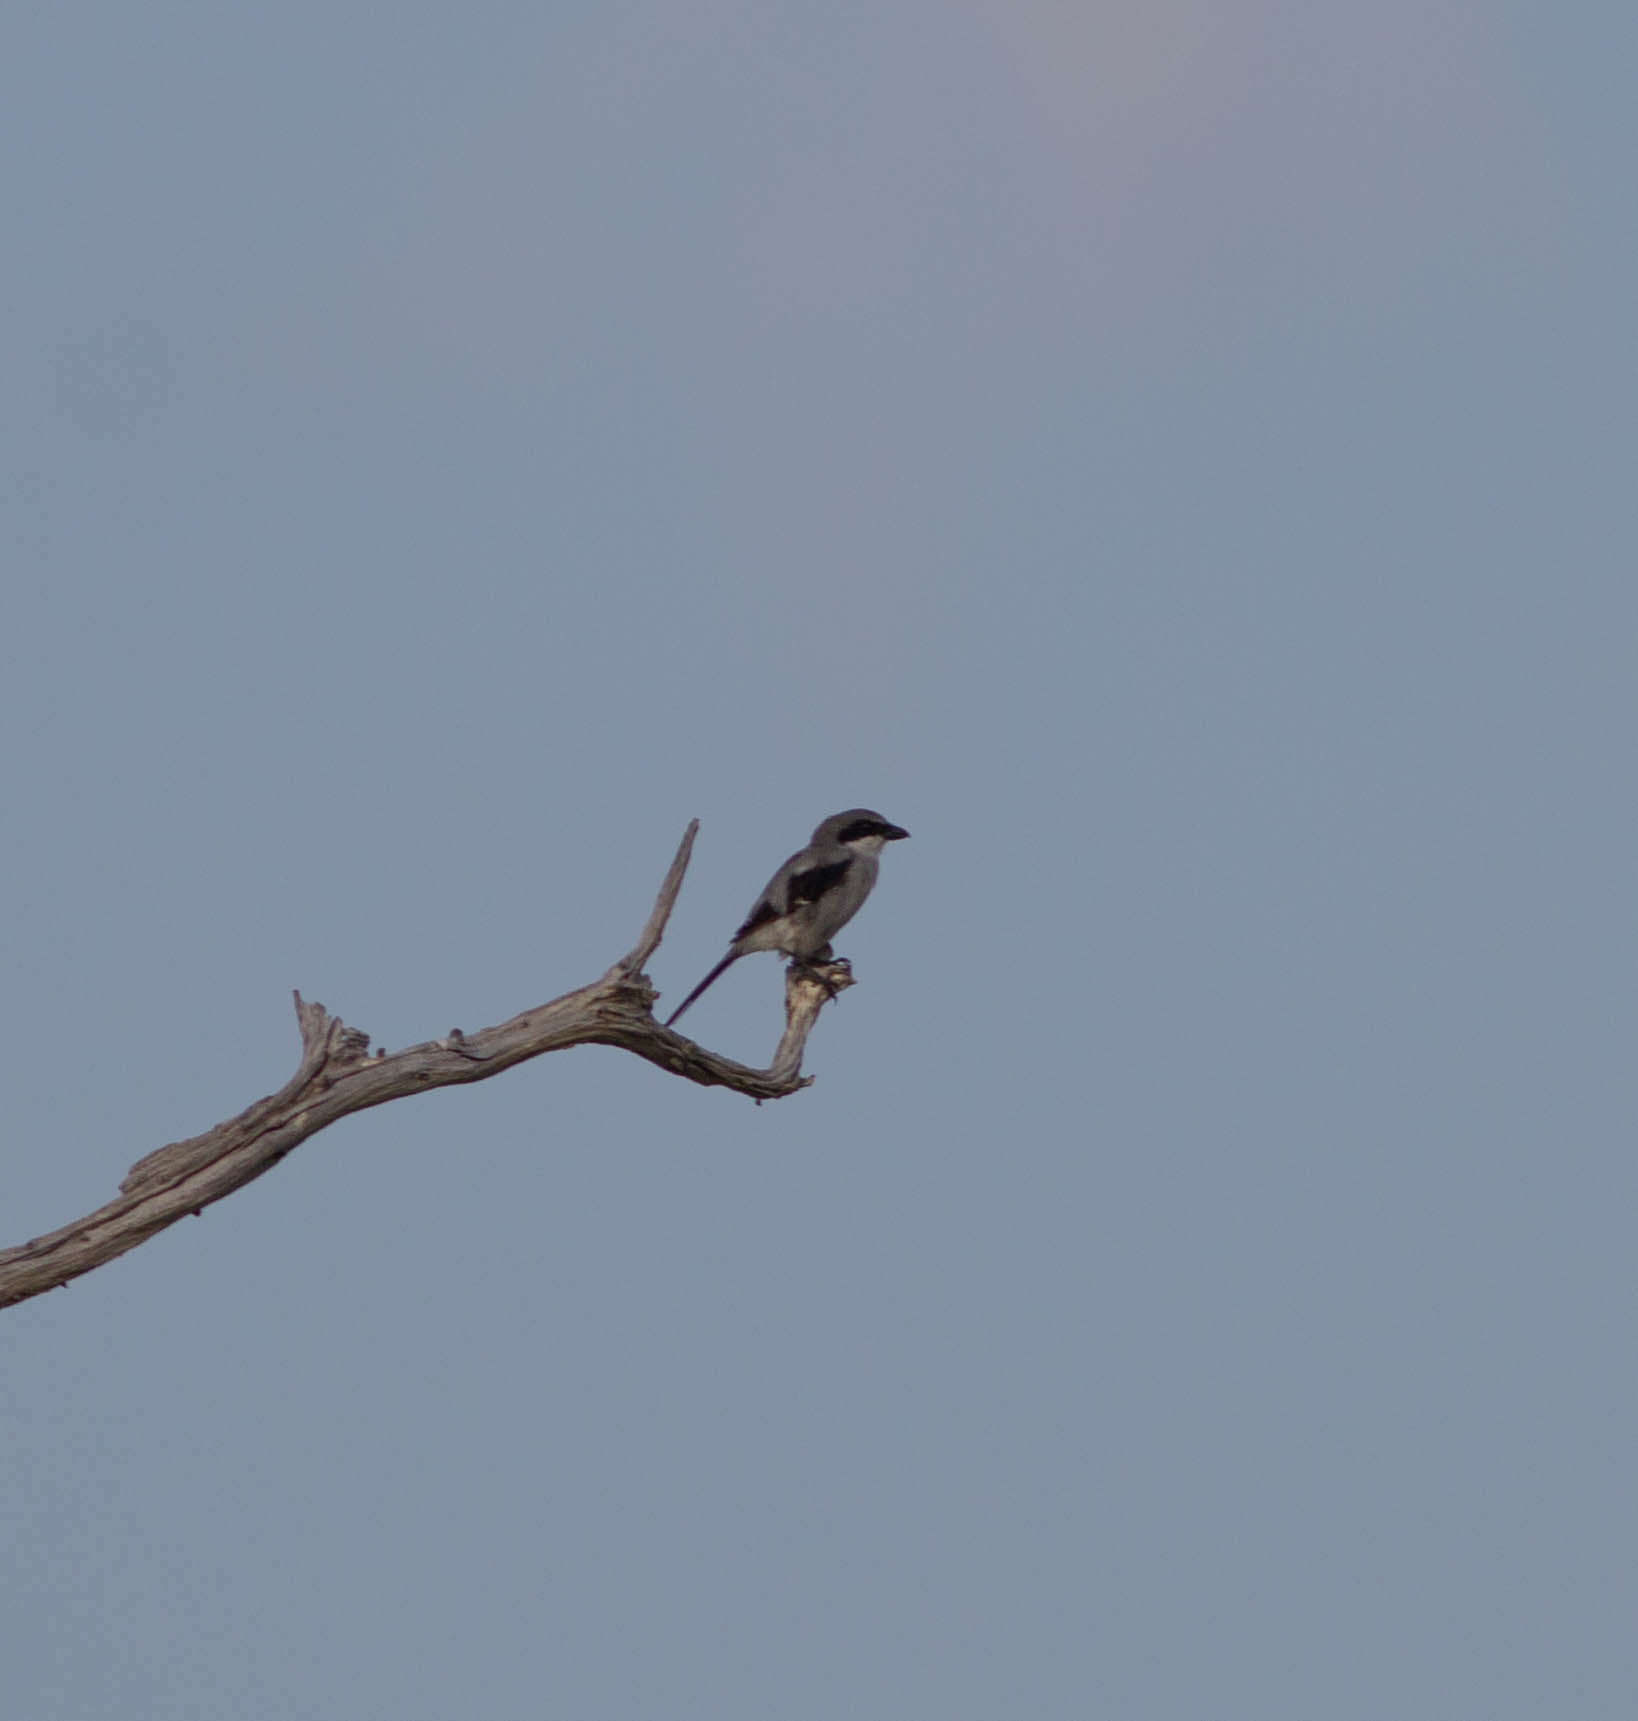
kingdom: Animalia
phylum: Chordata
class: Aves
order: Passeriformes
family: Laniidae
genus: Lanius
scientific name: Lanius ludovicianus
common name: Loggerhead shrike
